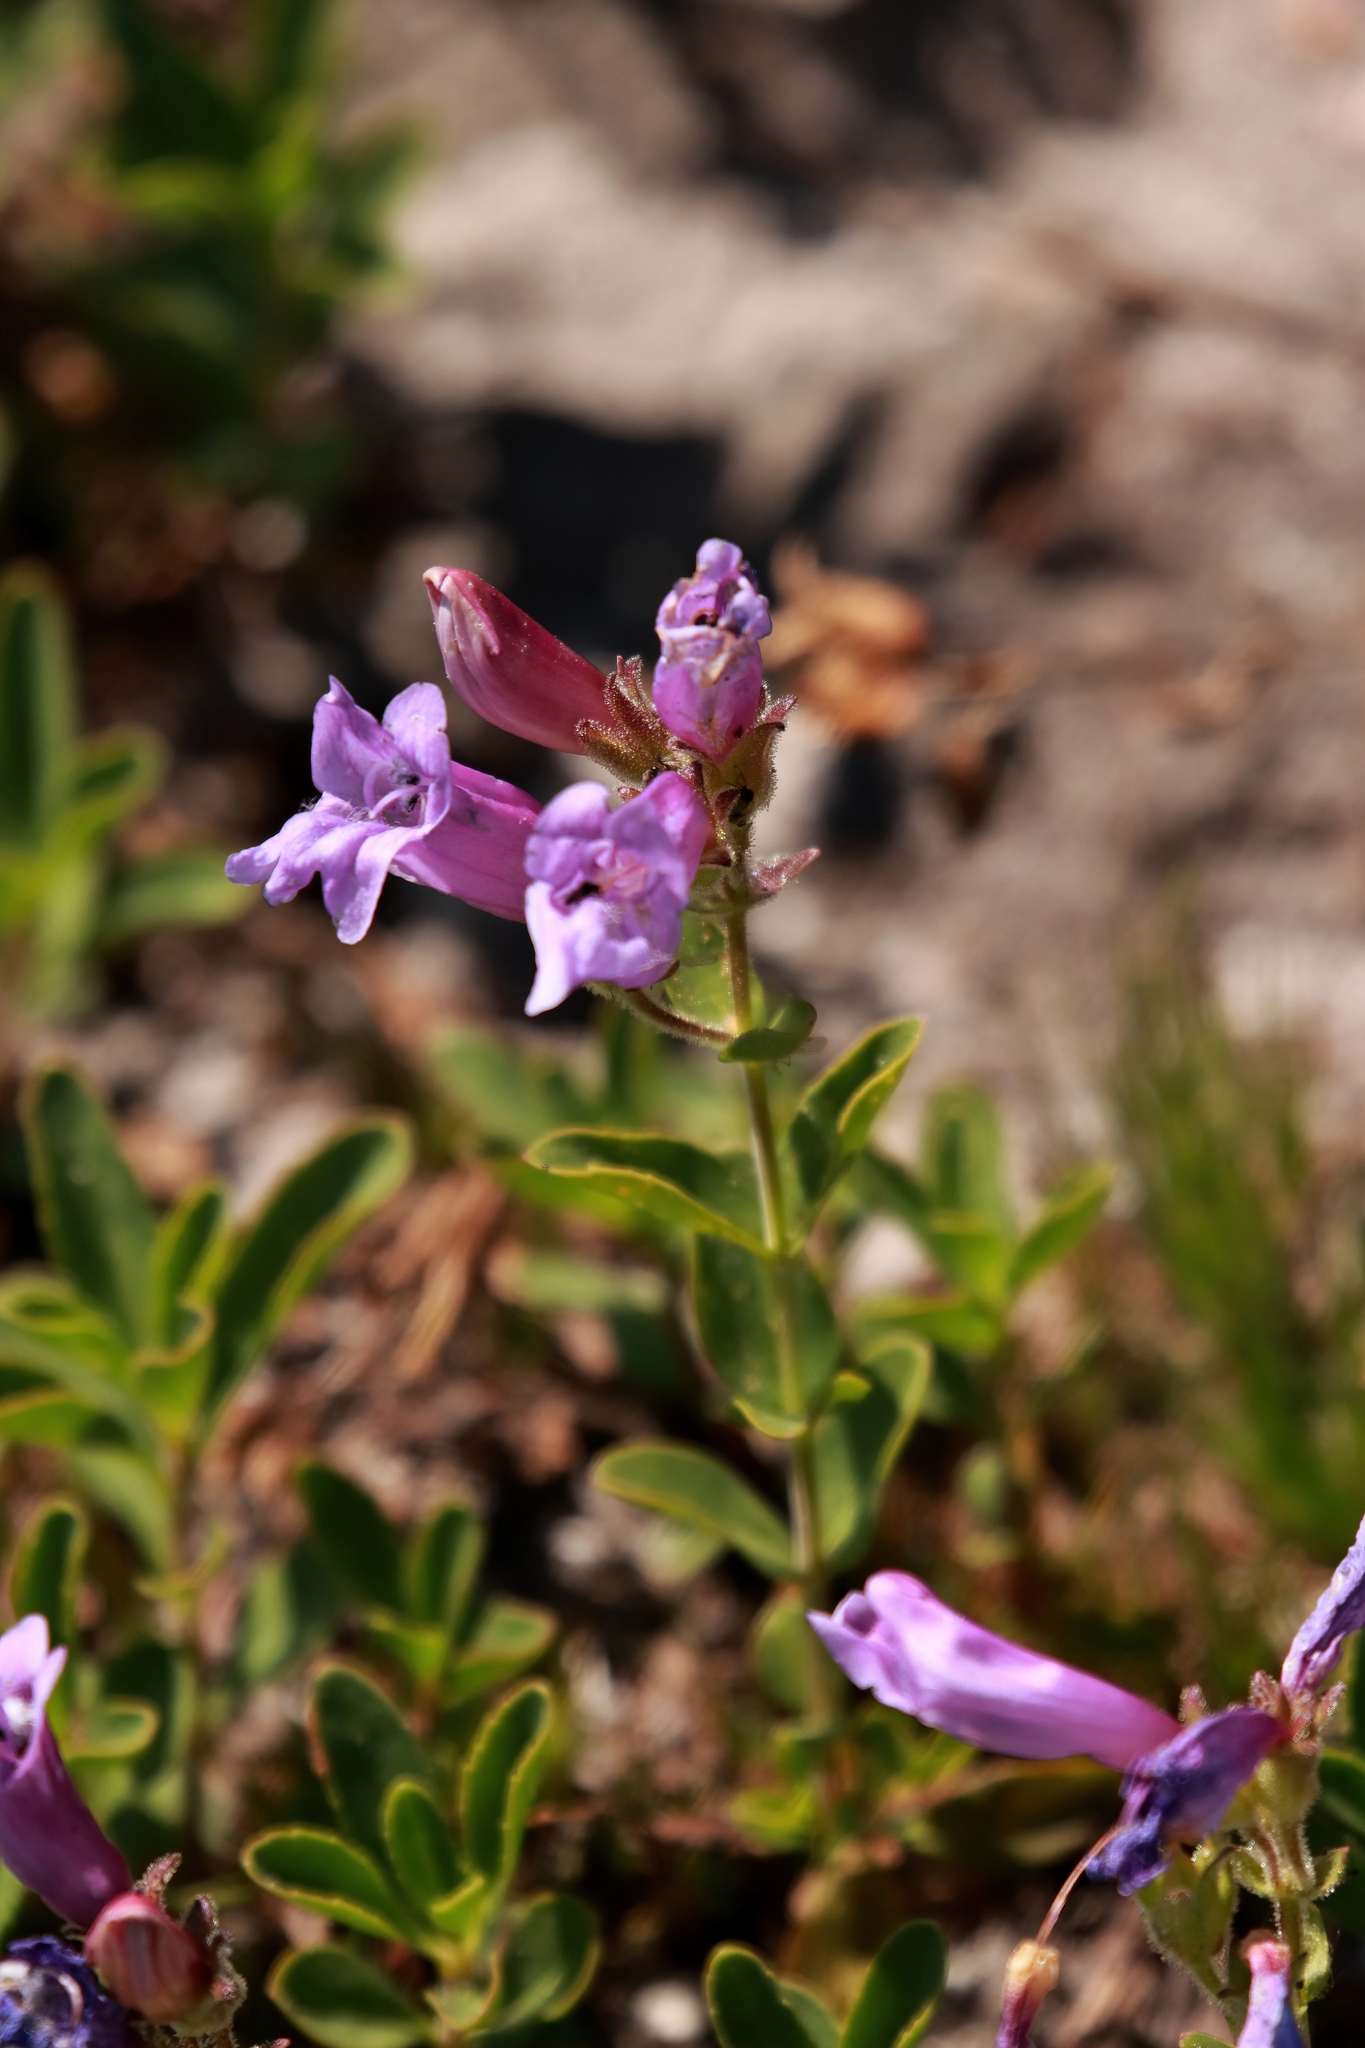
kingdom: Plantae
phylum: Tracheophyta
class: Magnoliopsida
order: Lamiales
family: Plantaginaceae
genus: Penstemon
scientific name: Penstemon ellipticus
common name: Alpine beardtongue
